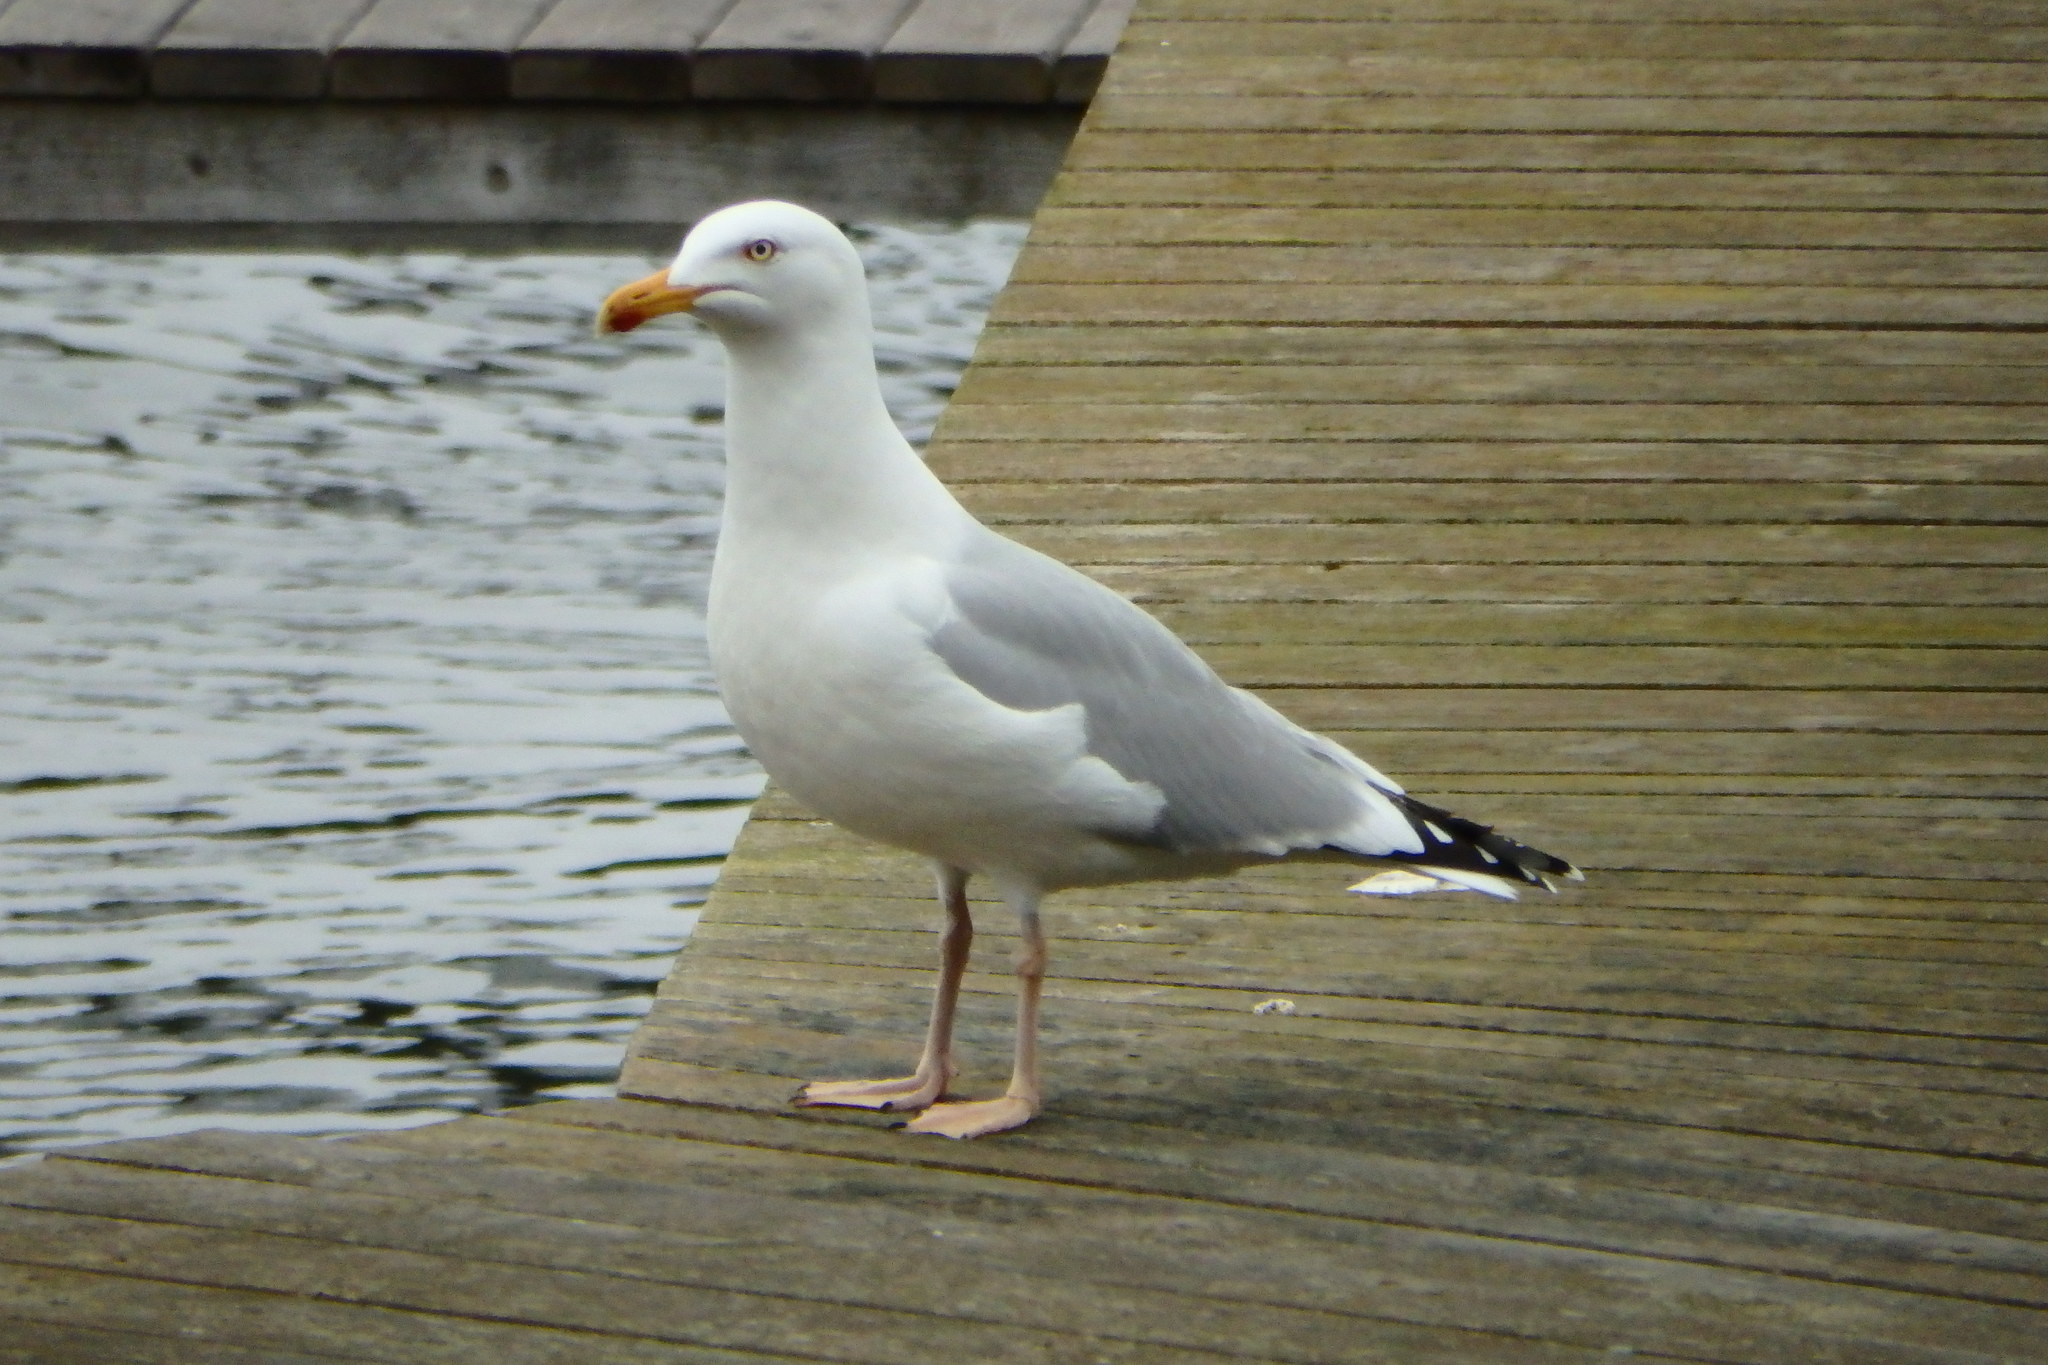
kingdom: Animalia
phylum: Chordata
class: Aves
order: Charadriiformes
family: Laridae
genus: Larus
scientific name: Larus argentatus
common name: Herring gull
